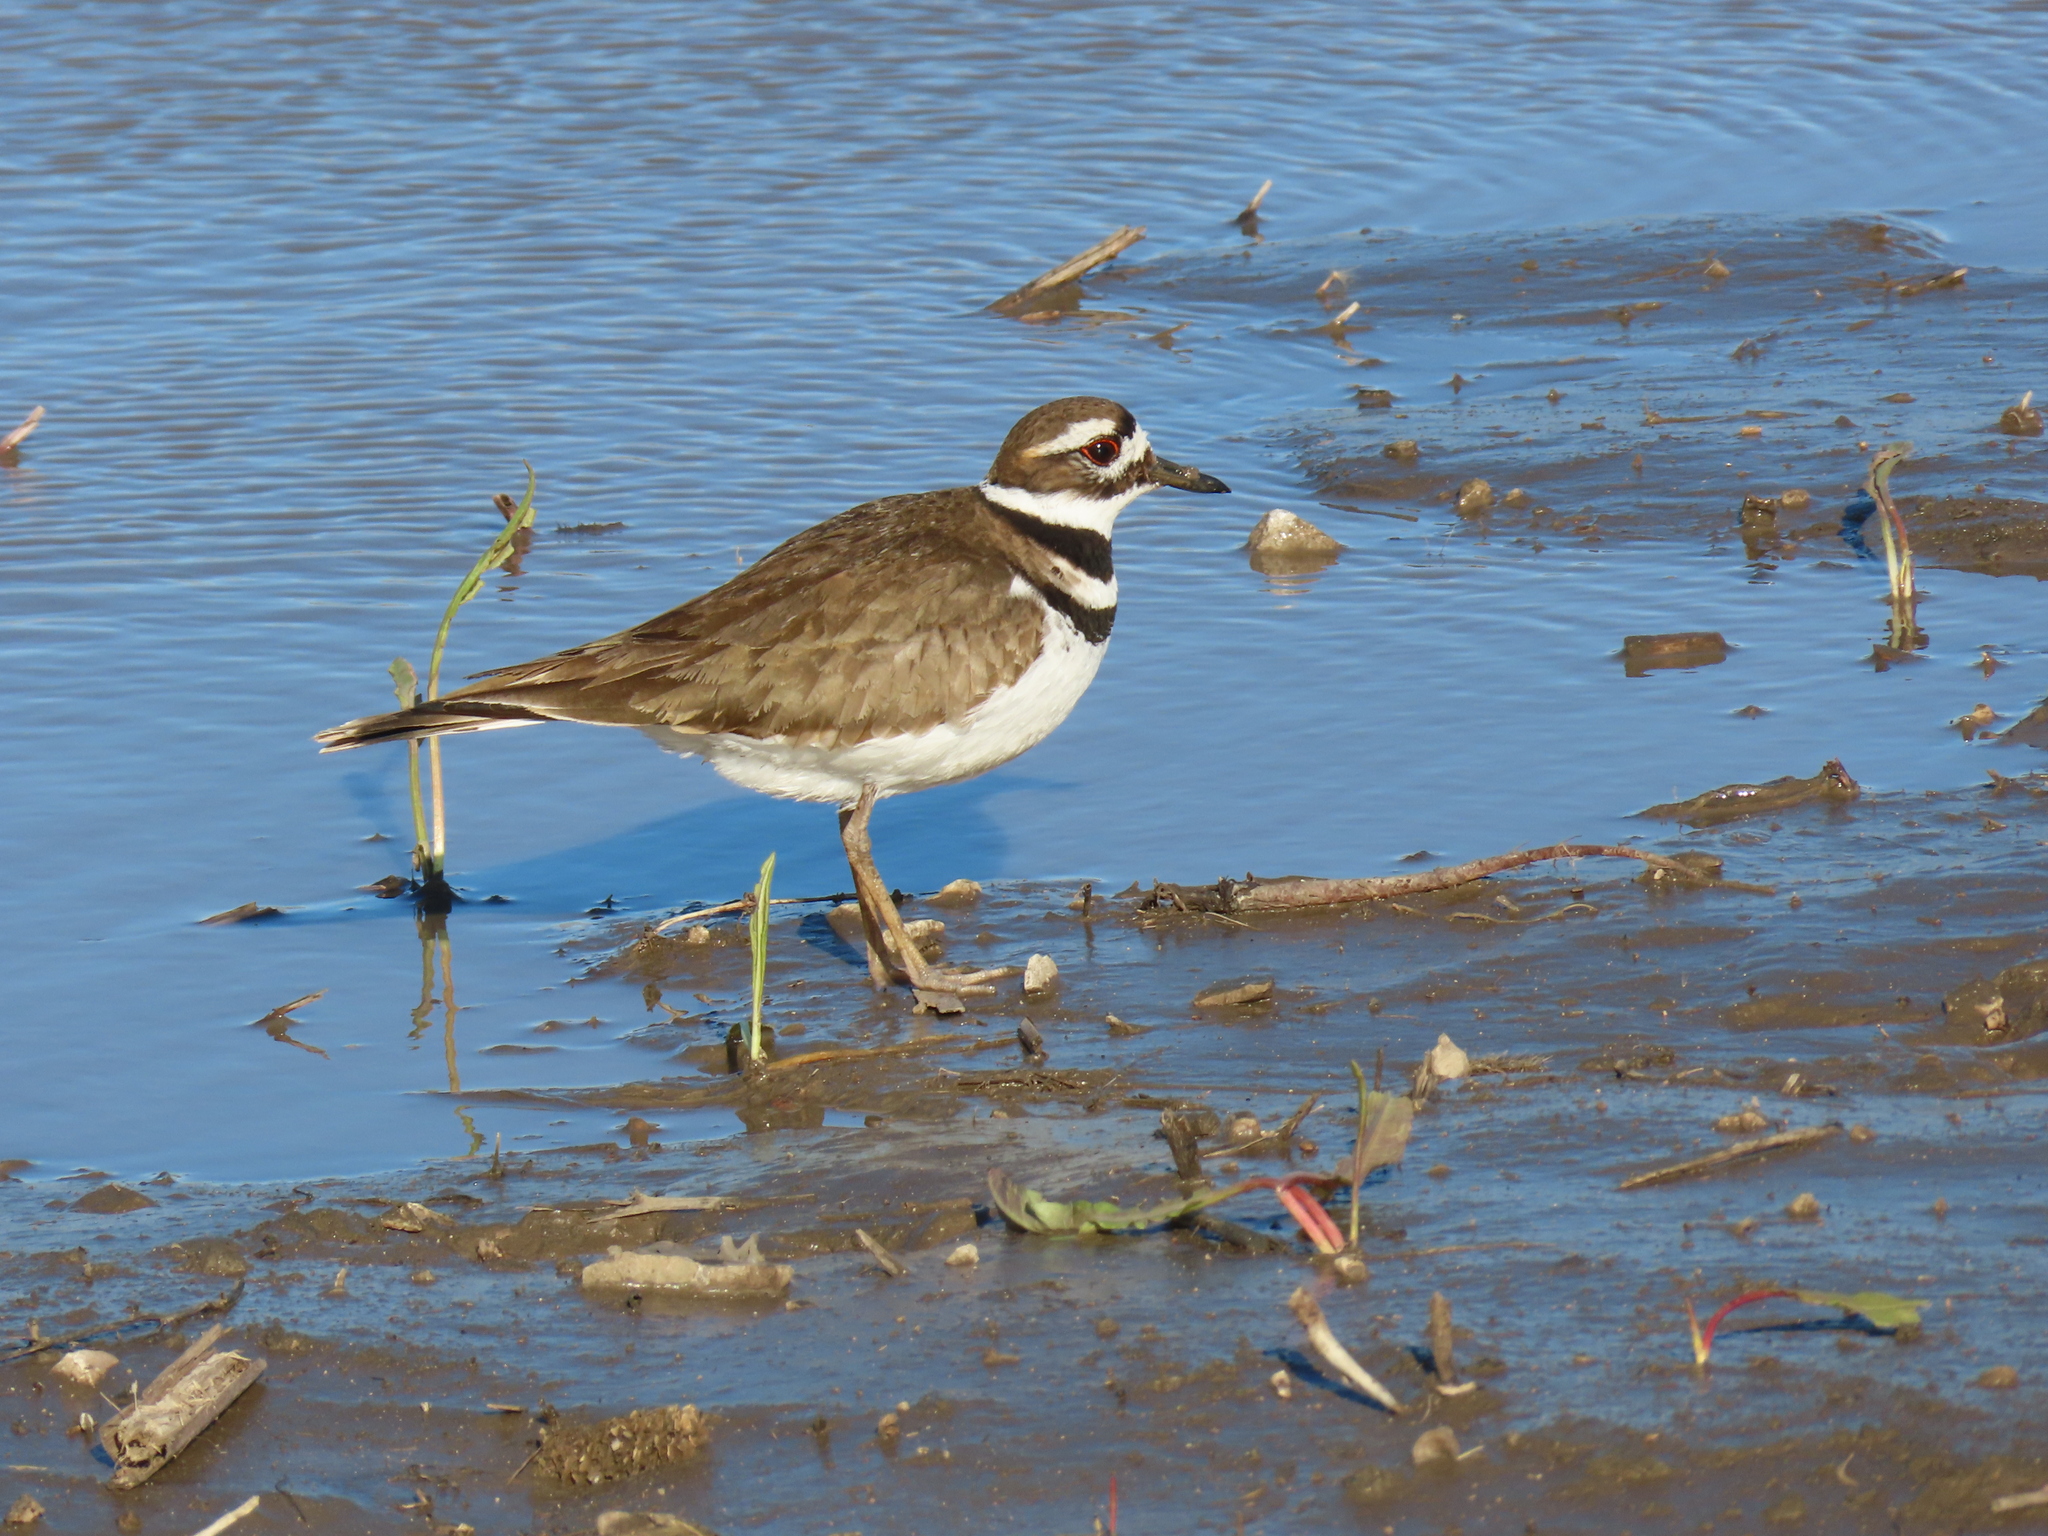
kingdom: Animalia
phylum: Chordata
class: Aves
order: Charadriiformes
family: Charadriidae
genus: Charadrius
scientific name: Charadrius vociferus
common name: Killdeer
